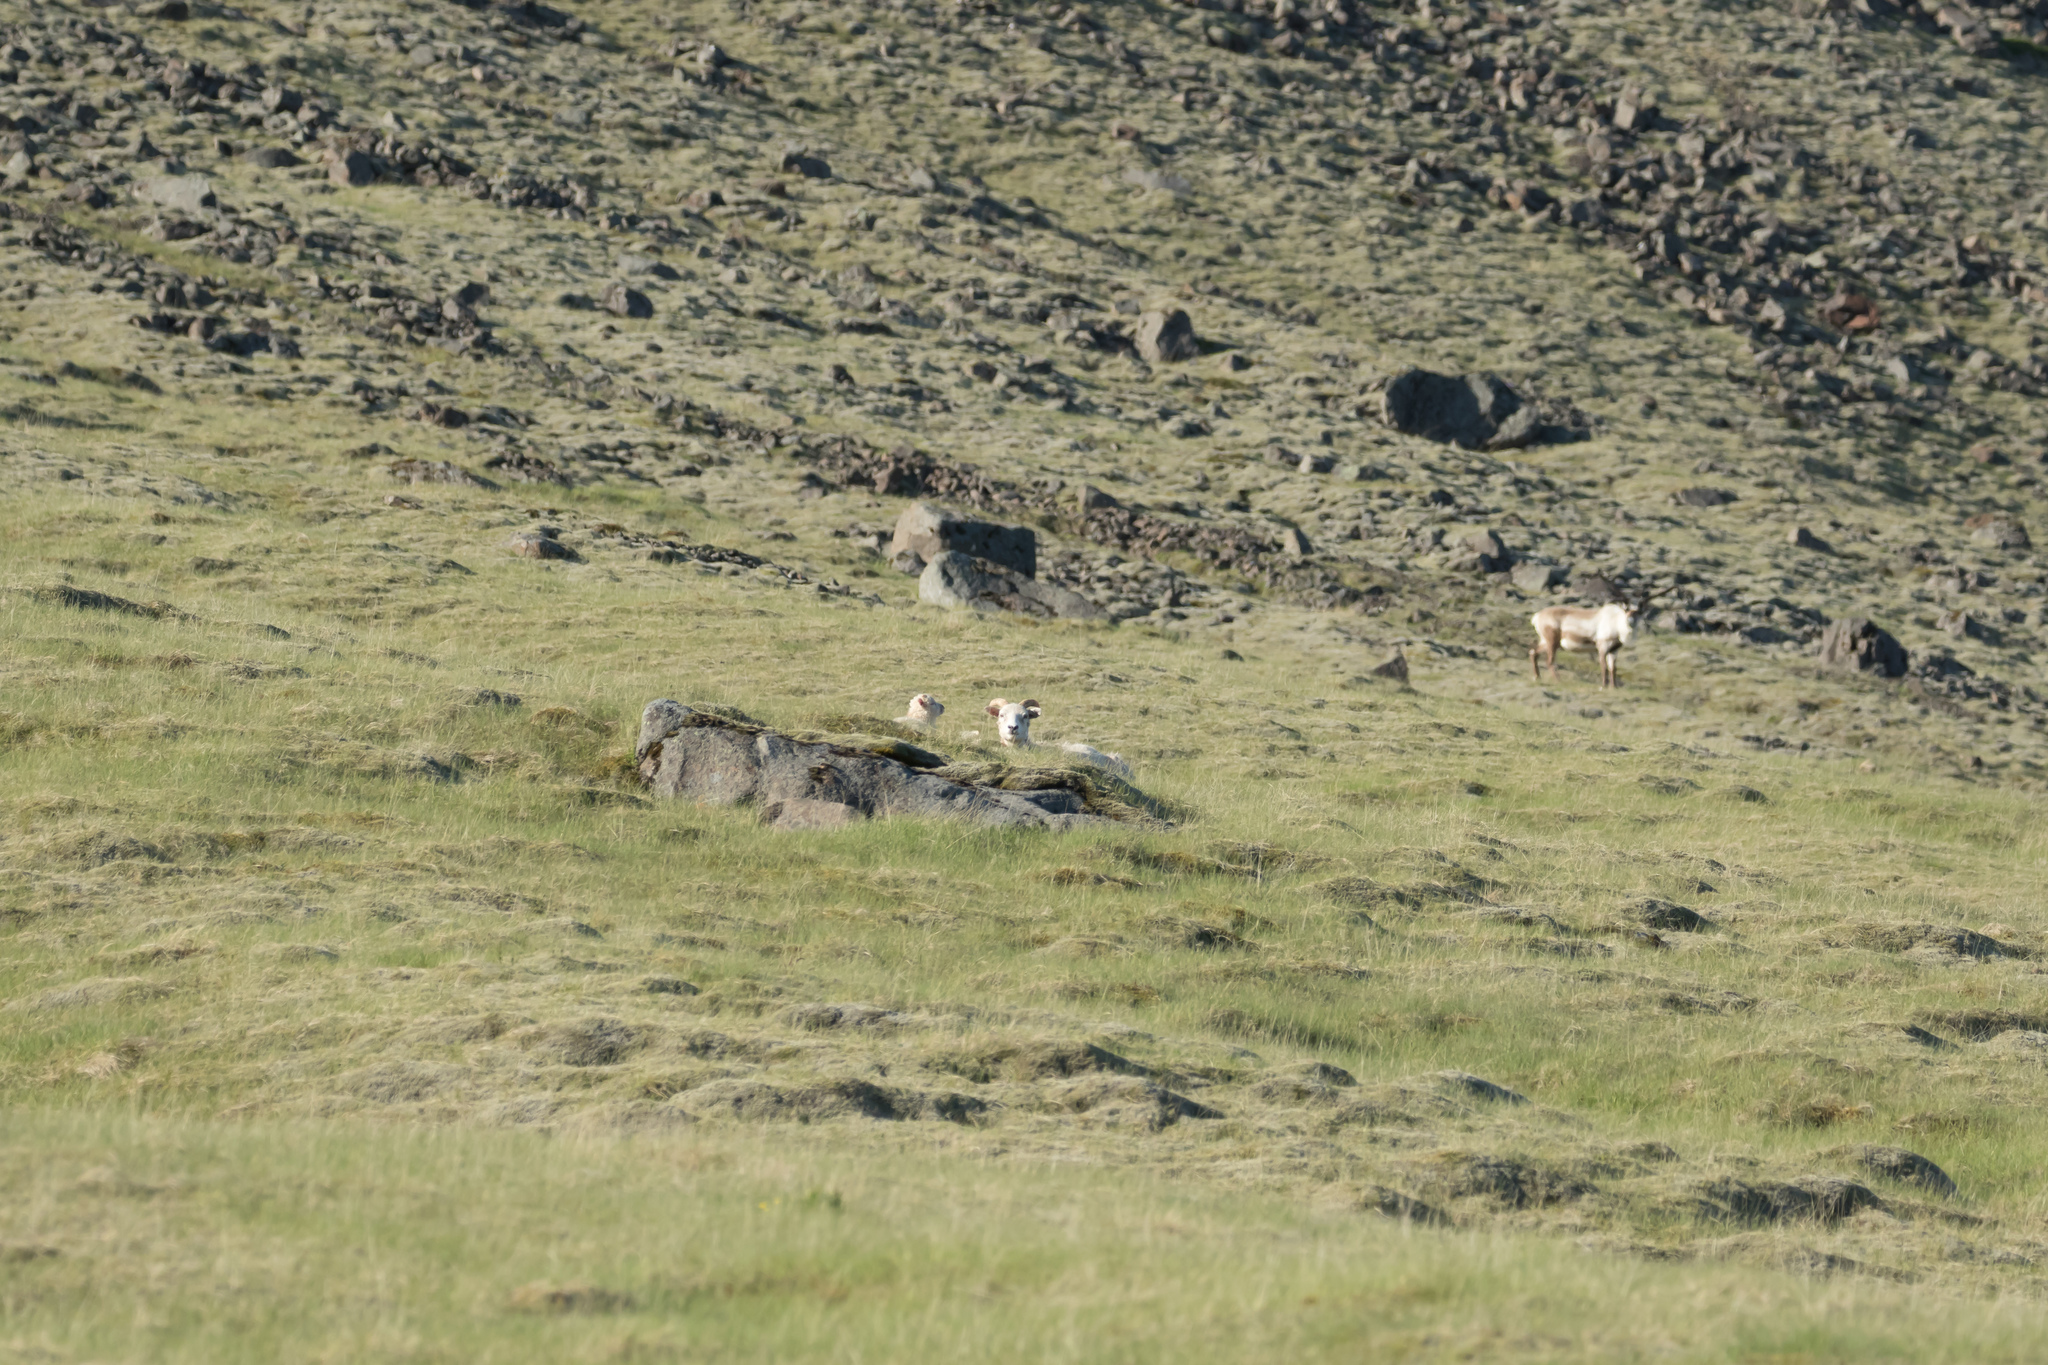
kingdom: Animalia
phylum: Chordata
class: Mammalia
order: Artiodactyla
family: Bovidae
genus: Ovis
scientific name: Ovis aries
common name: Domestic sheep
